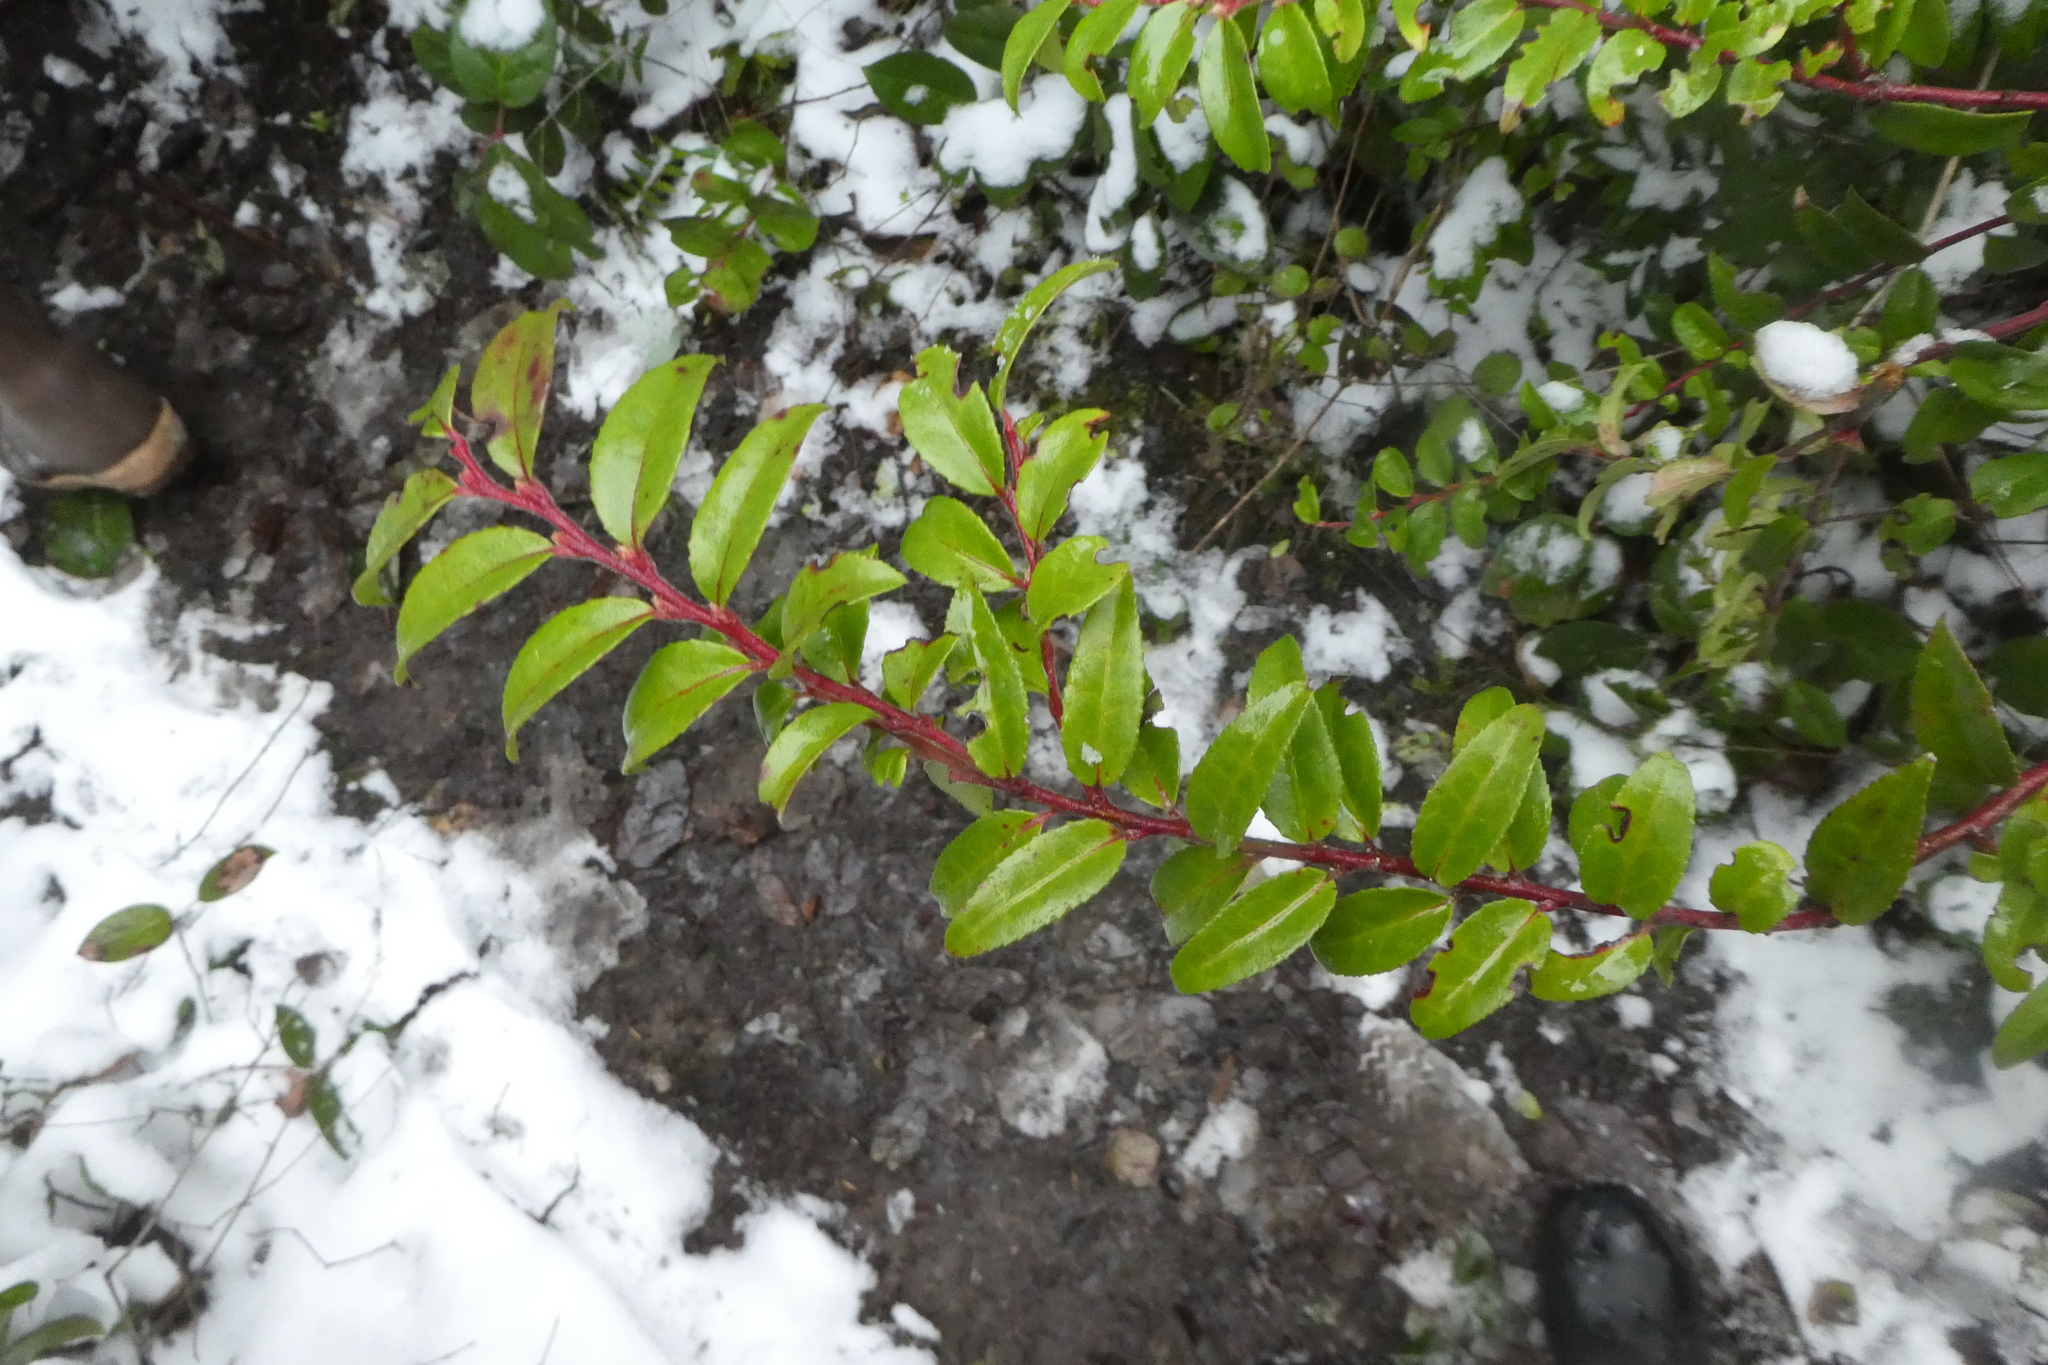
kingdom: Plantae
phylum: Tracheophyta
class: Magnoliopsida
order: Ericales
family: Ericaceae
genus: Vaccinium
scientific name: Vaccinium ovatum
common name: California-huckleberry
